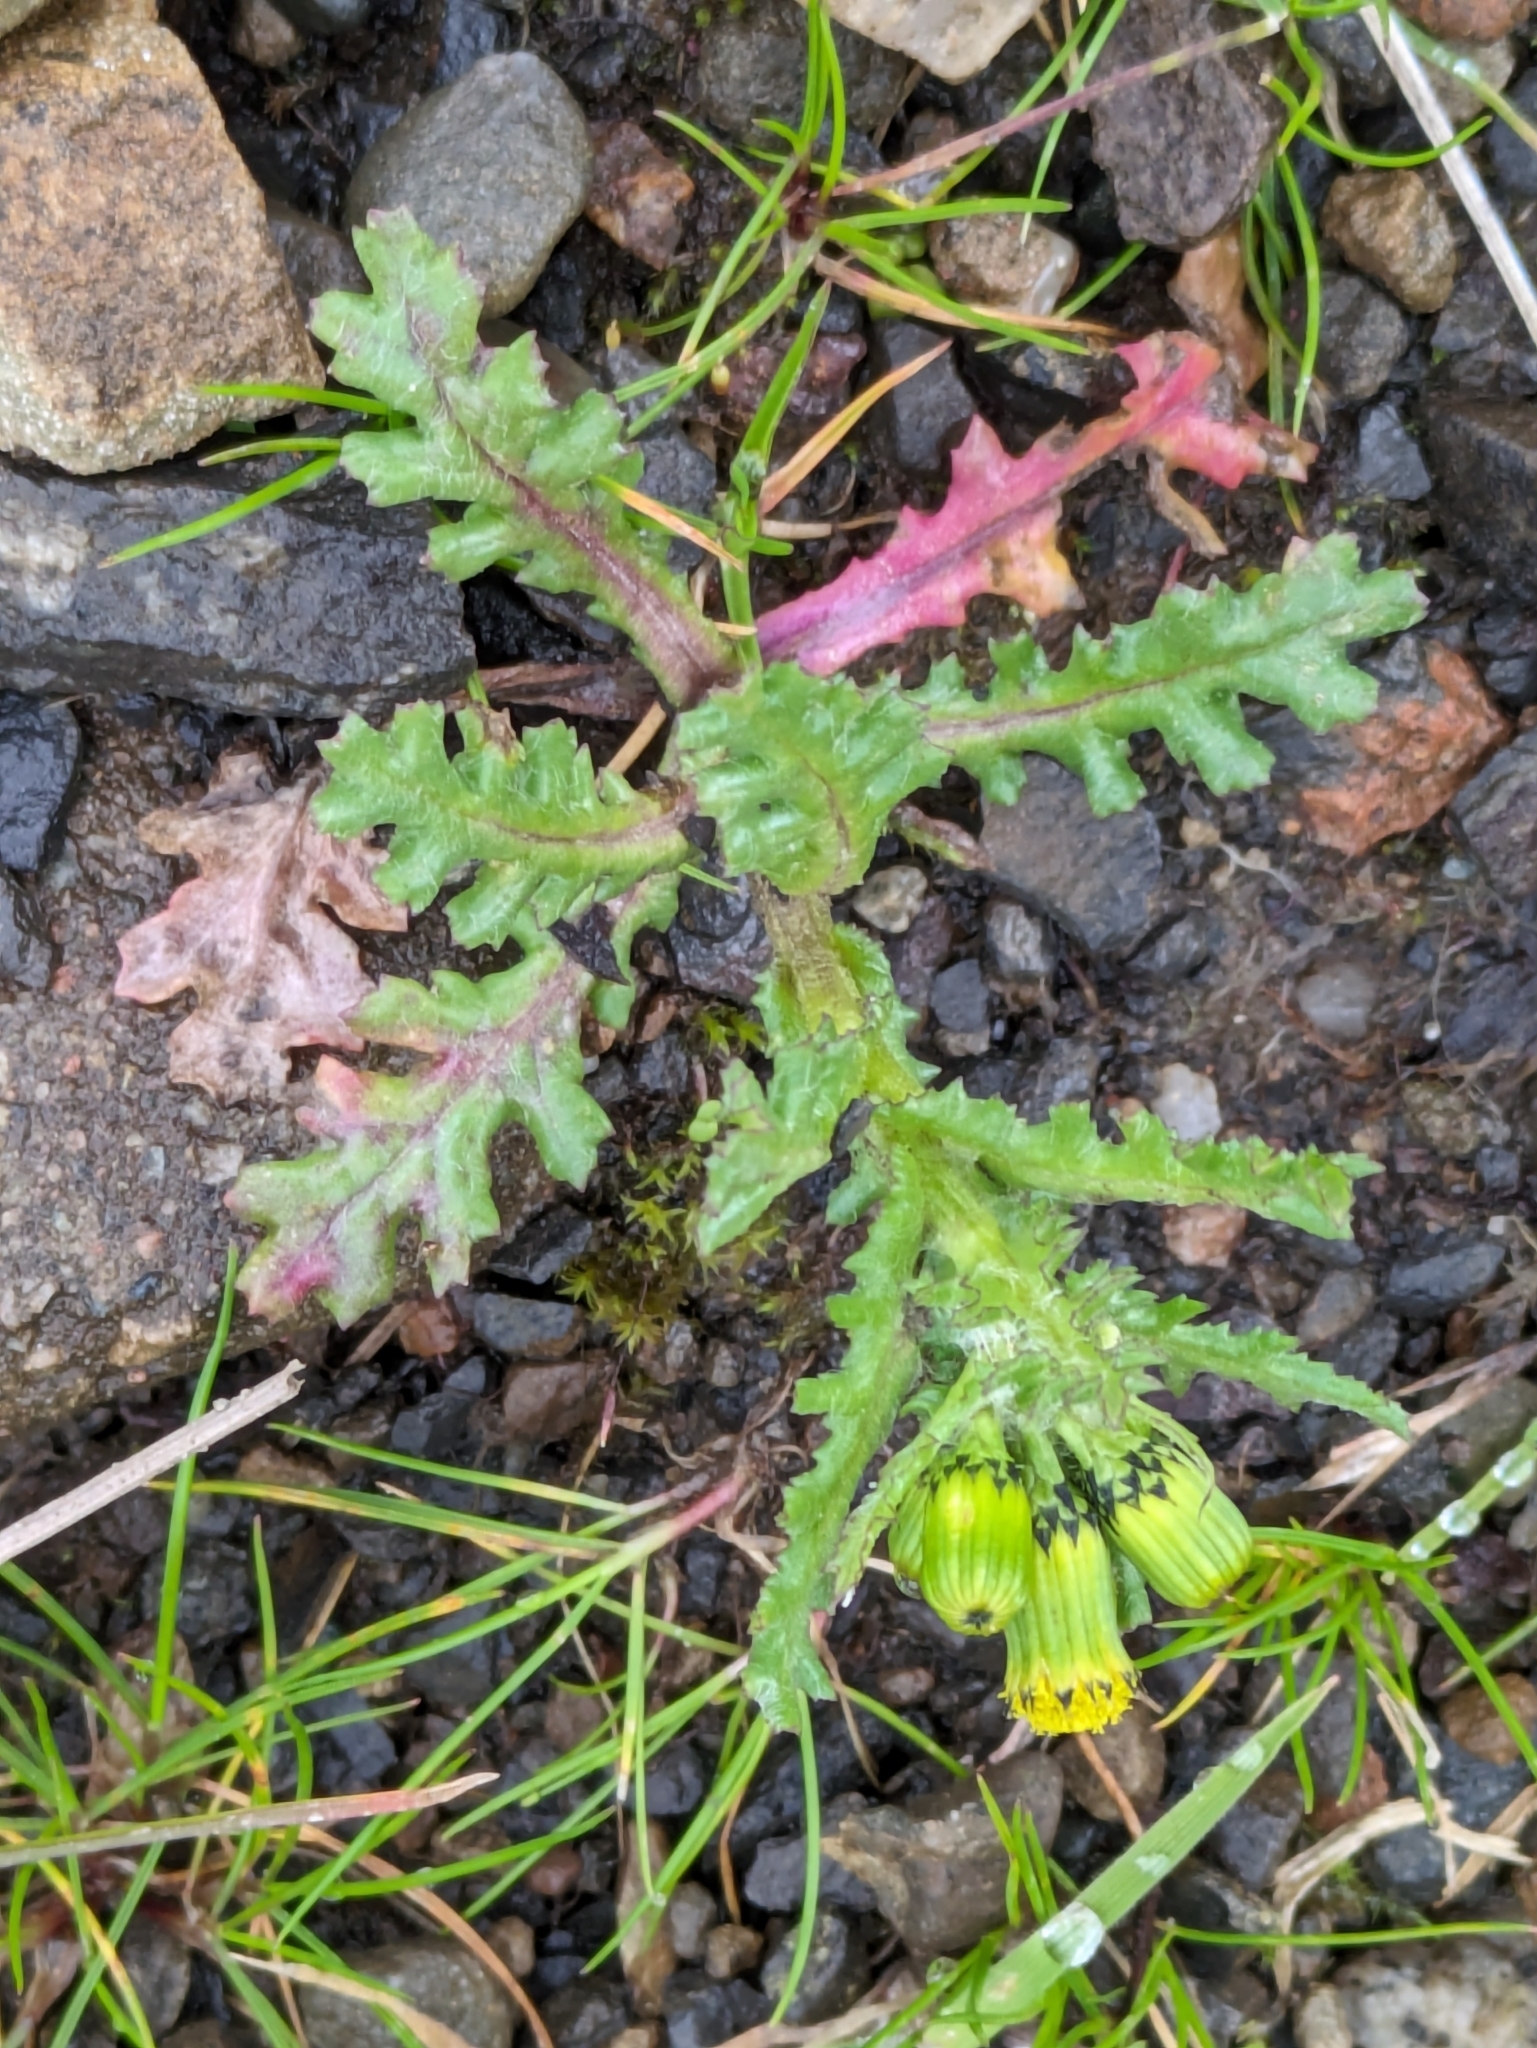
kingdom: Plantae
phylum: Tracheophyta
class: Magnoliopsida
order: Asterales
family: Asteraceae
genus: Senecio
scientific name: Senecio vulgaris
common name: Old-man-in-the-spring
